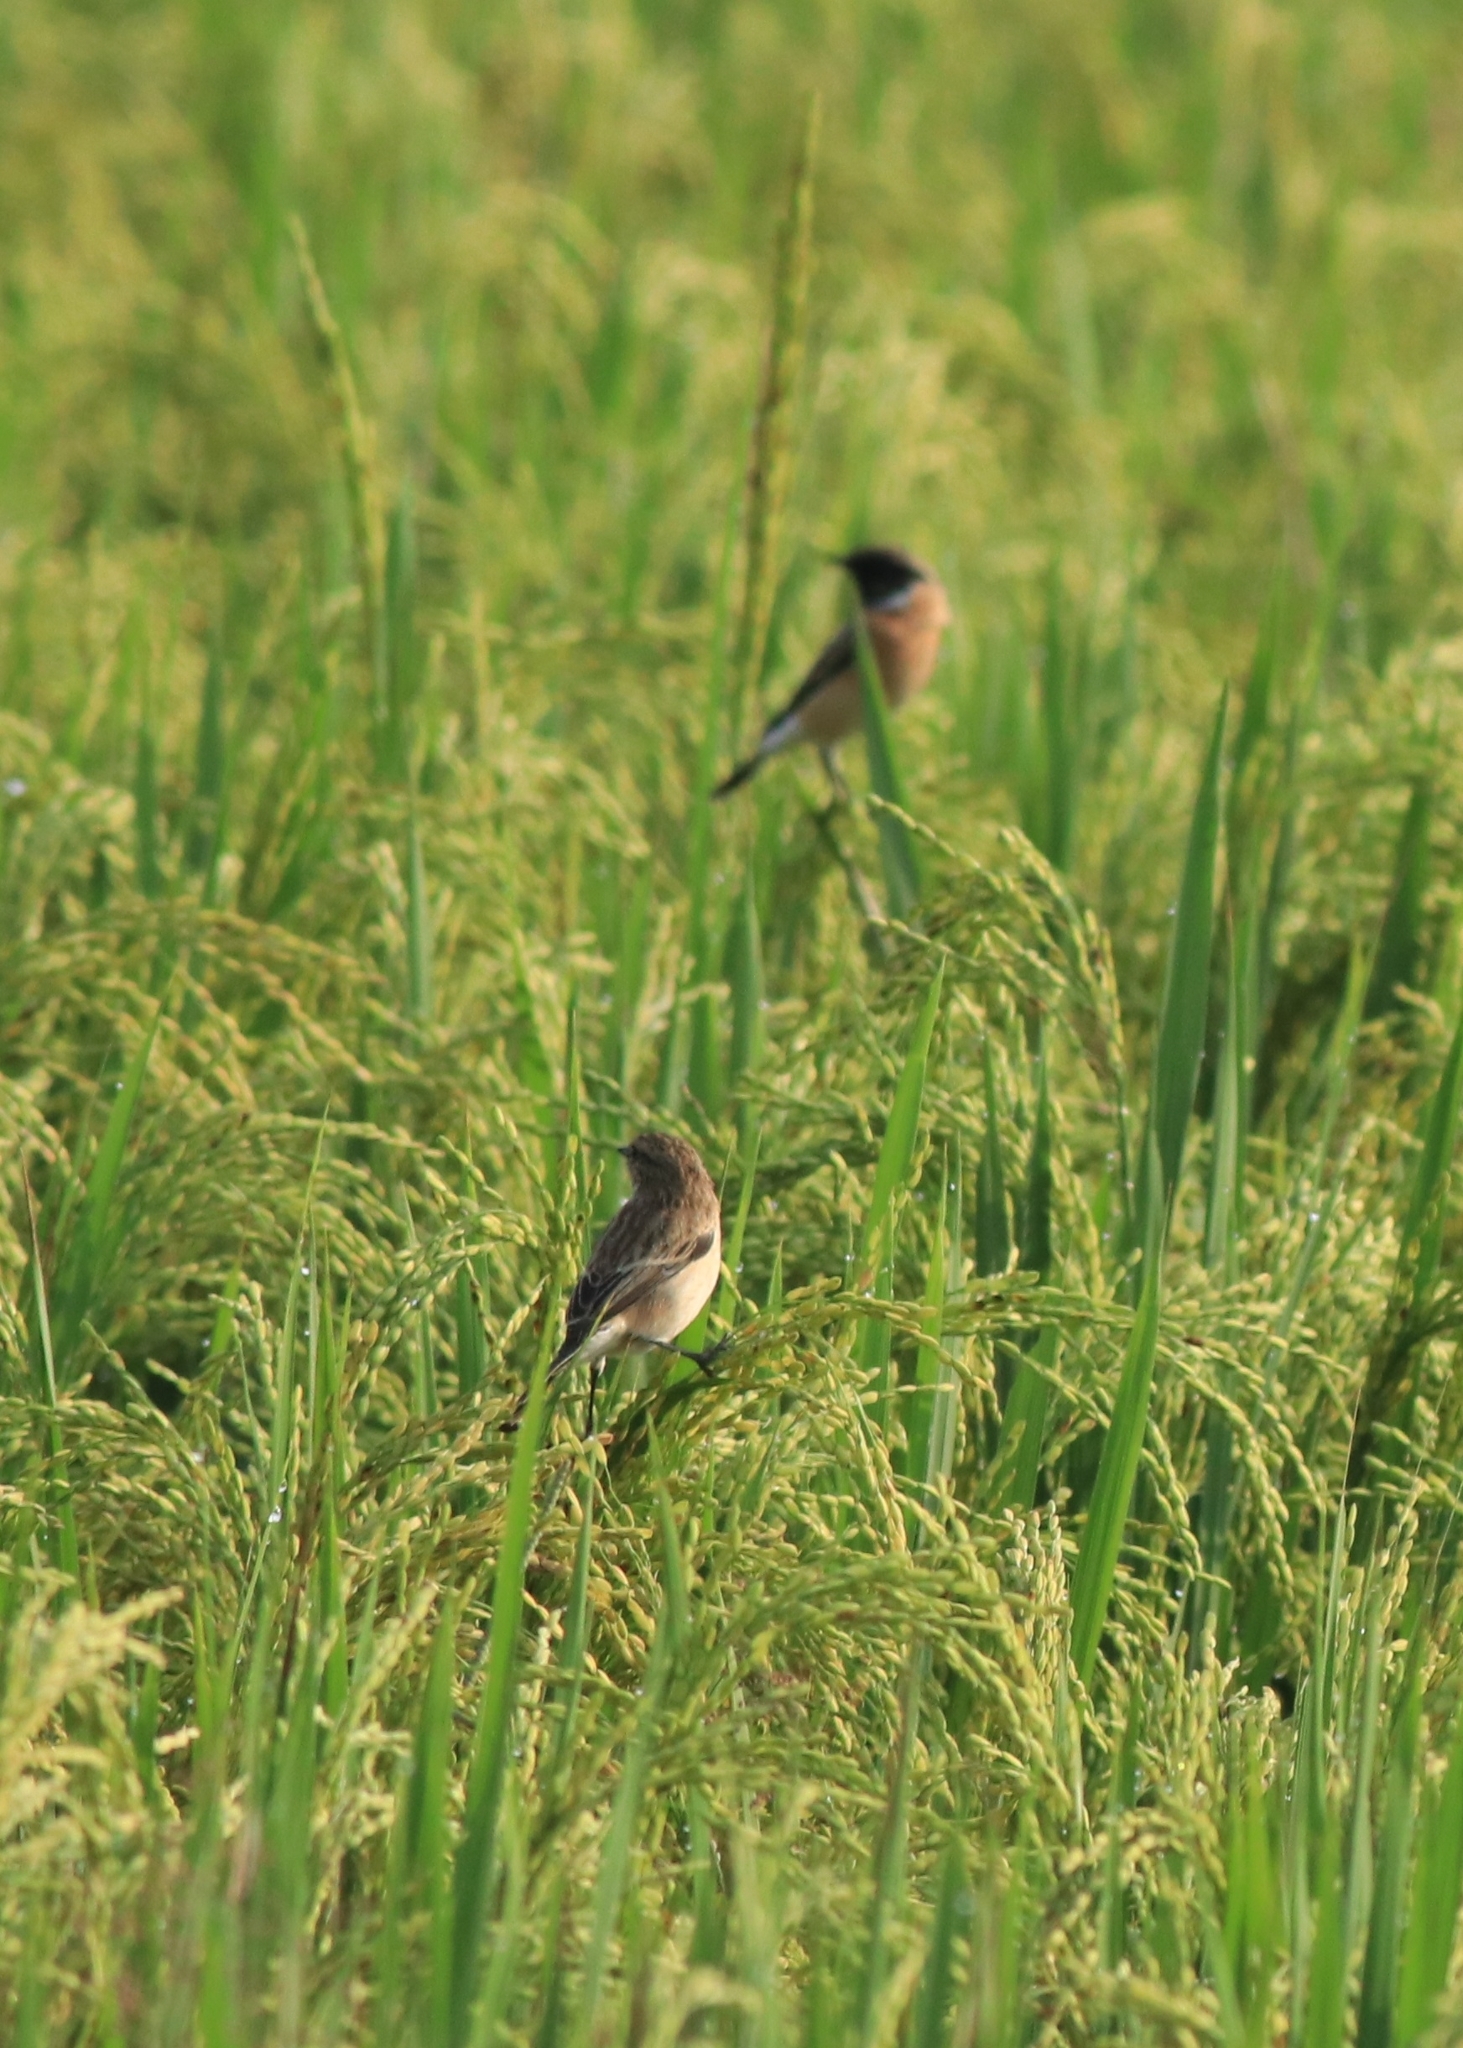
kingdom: Animalia
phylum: Chordata
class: Aves
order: Passeriformes
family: Muscicapidae
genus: Saxicola
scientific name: Saxicola maurus
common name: Siberian stonechat
